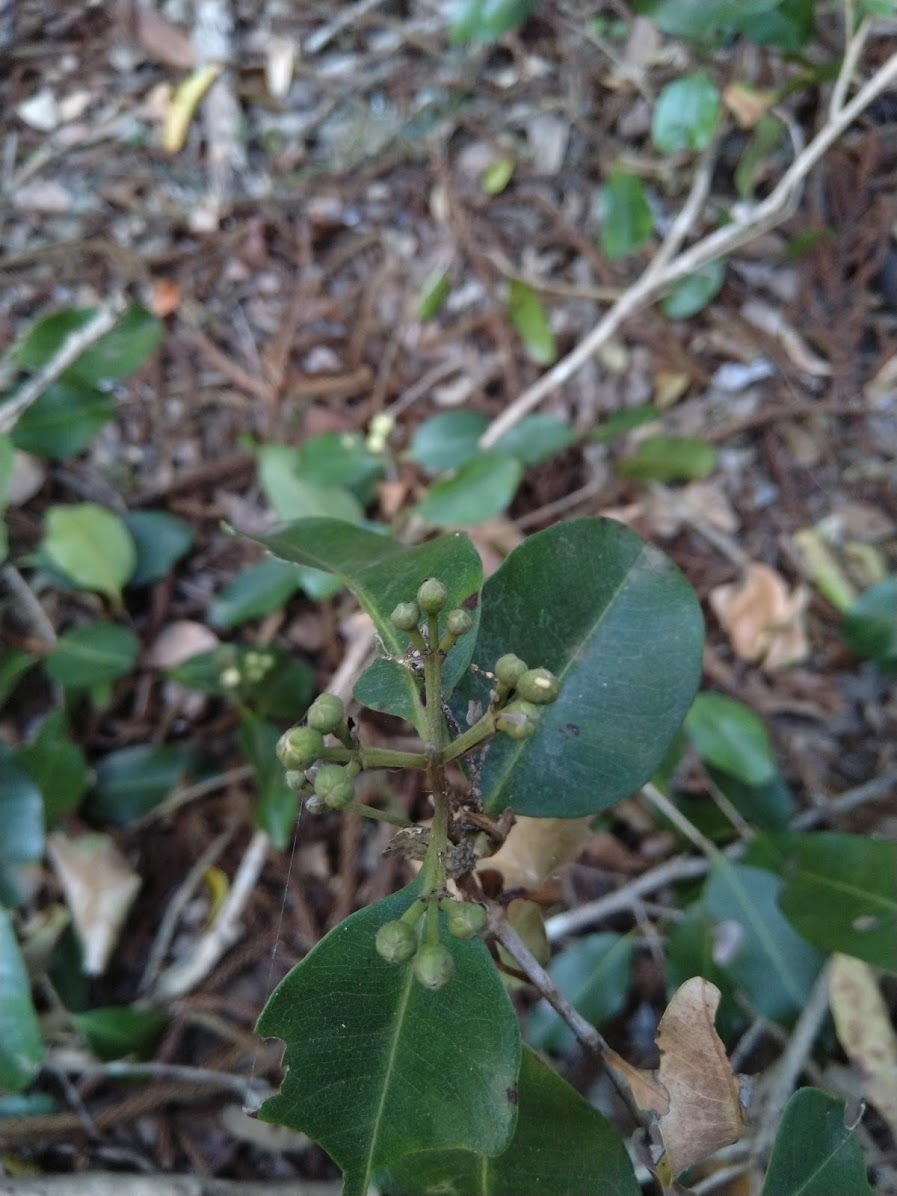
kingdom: Plantae
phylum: Tracheophyta
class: Magnoliopsida
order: Myrtales
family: Myrtaceae
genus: Xanthostemon
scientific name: Xanthostemon oppositifolius
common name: Southern penda
